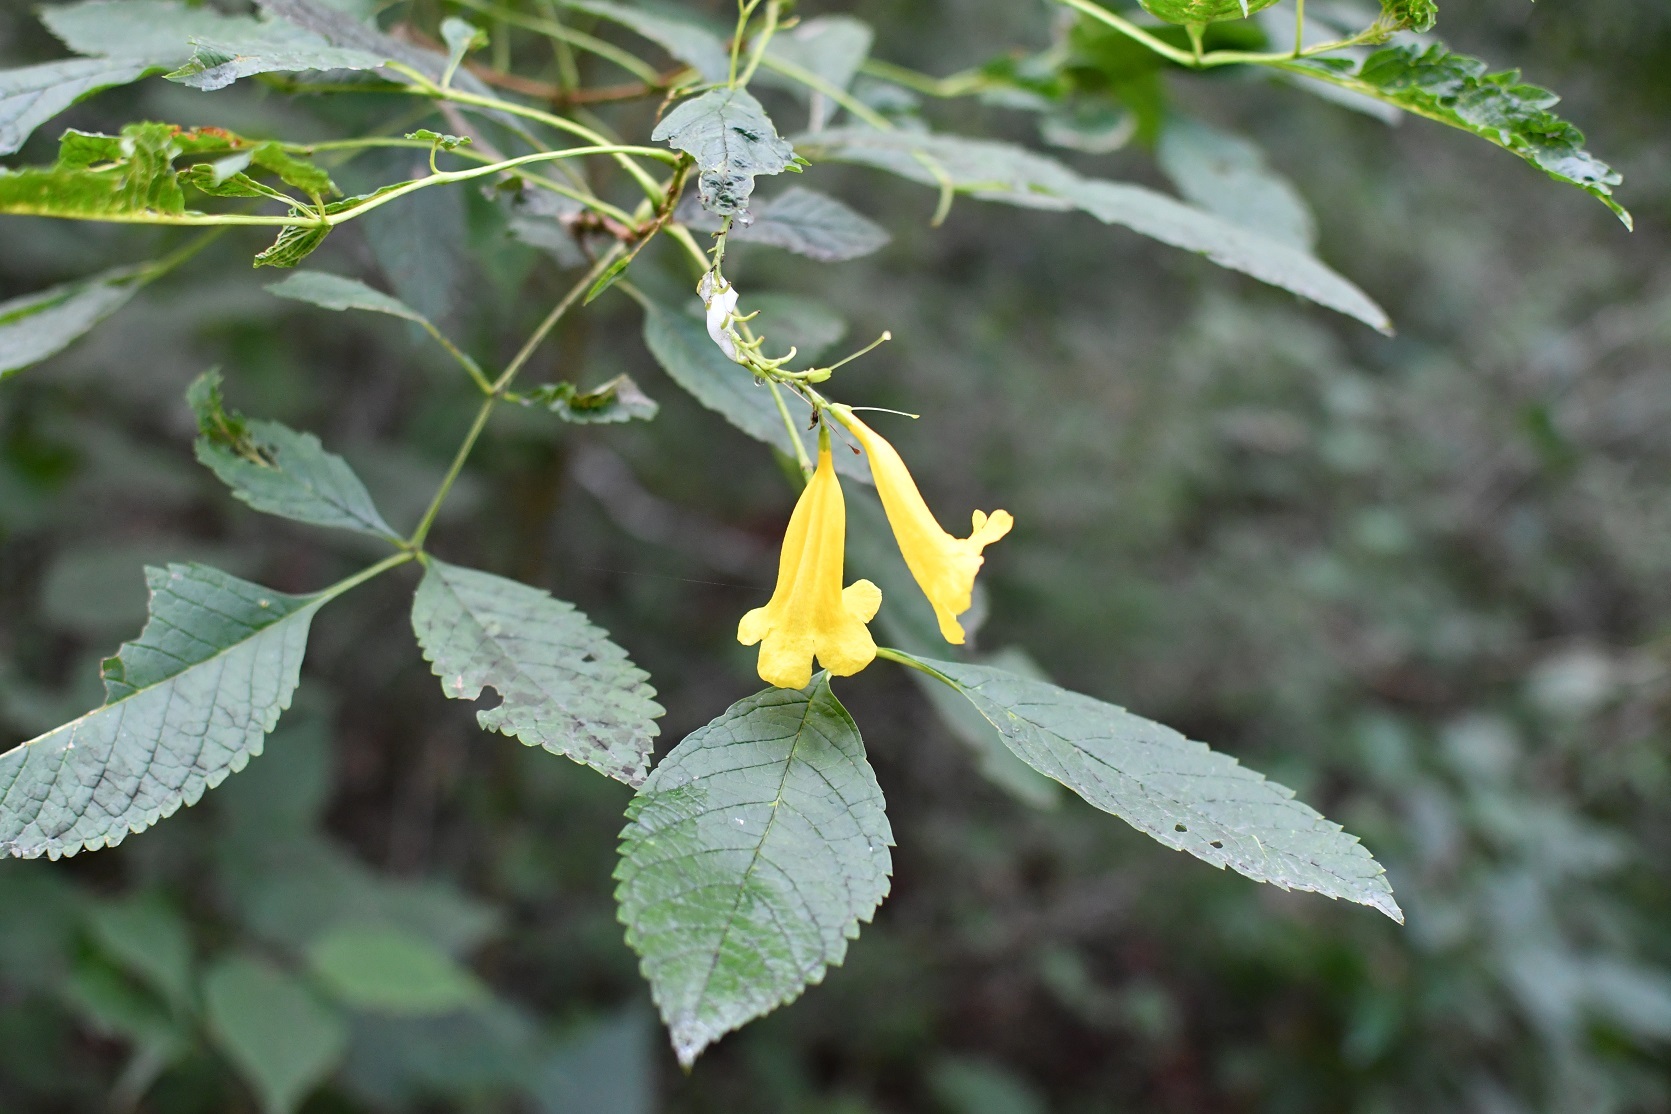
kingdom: Plantae
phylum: Tracheophyta
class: Magnoliopsida
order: Lamiales
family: Bignoniaceae
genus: Tecoma
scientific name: Tecoma stans
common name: Yellow trumpetbush
